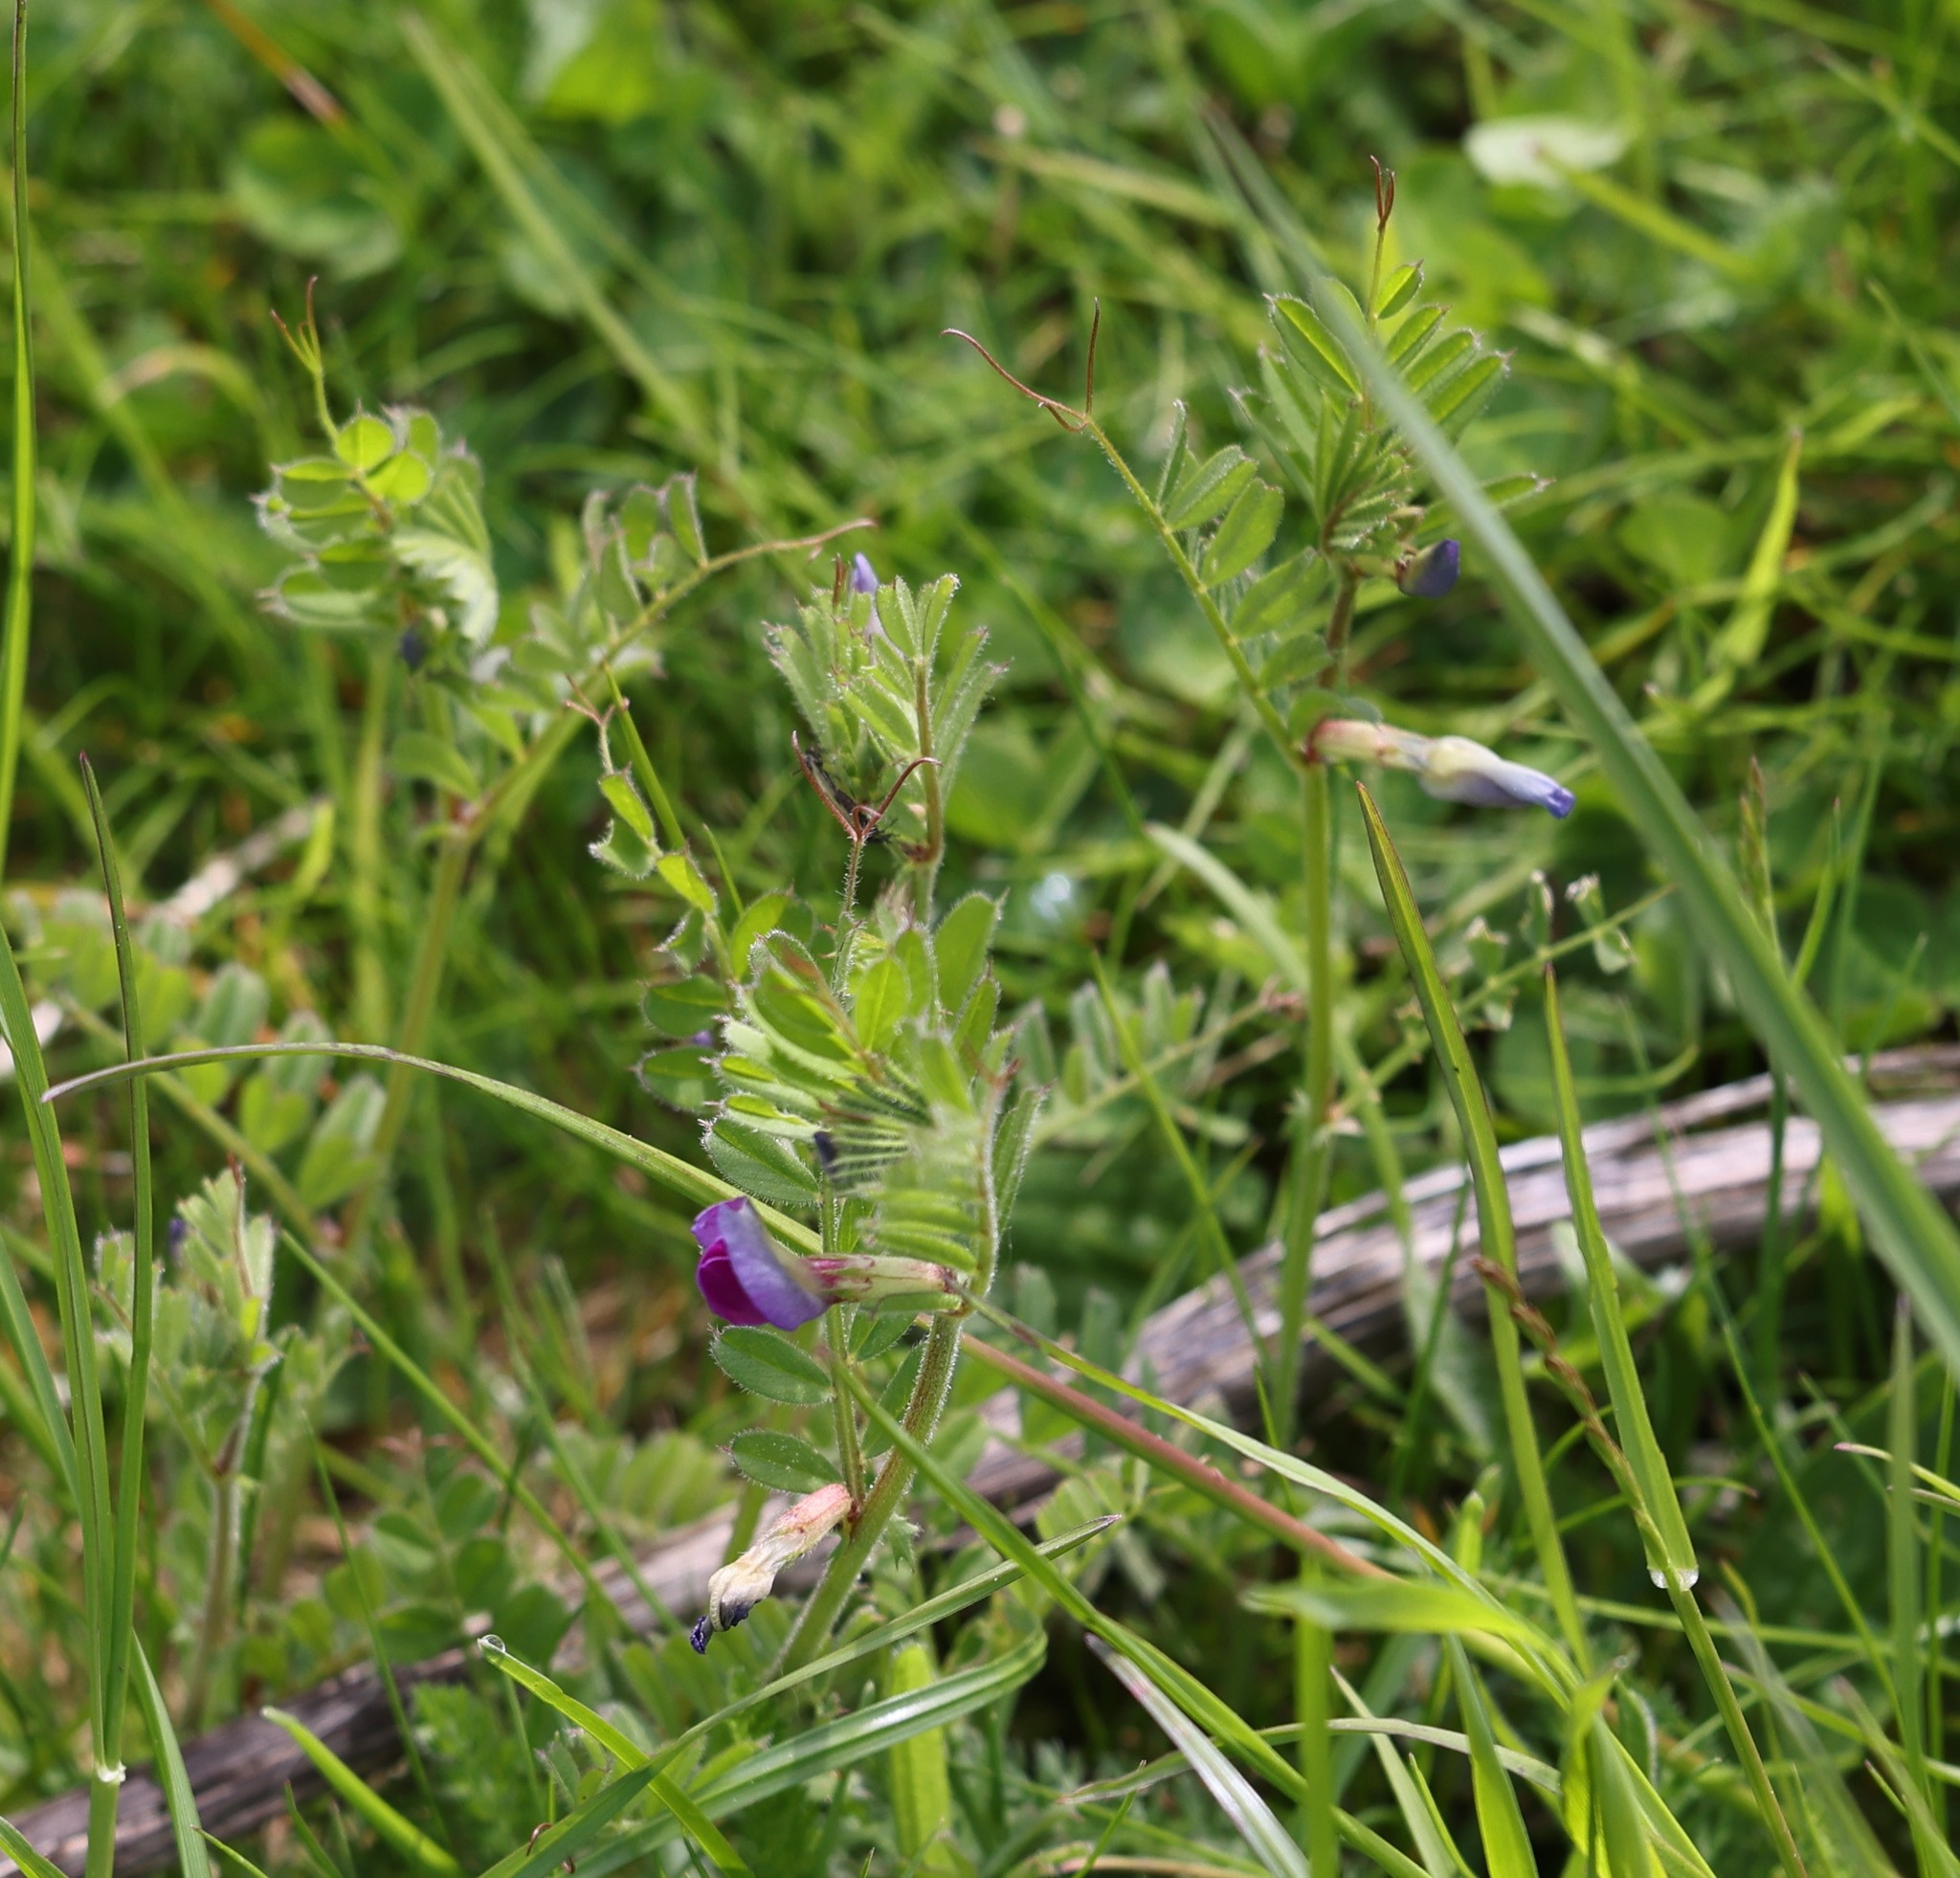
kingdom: Plantae
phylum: Tracheophyta
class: Magnoliopsida
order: Fabales
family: Fabaceae
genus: Vicia
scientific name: Vicia sativa
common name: Garden vetch
